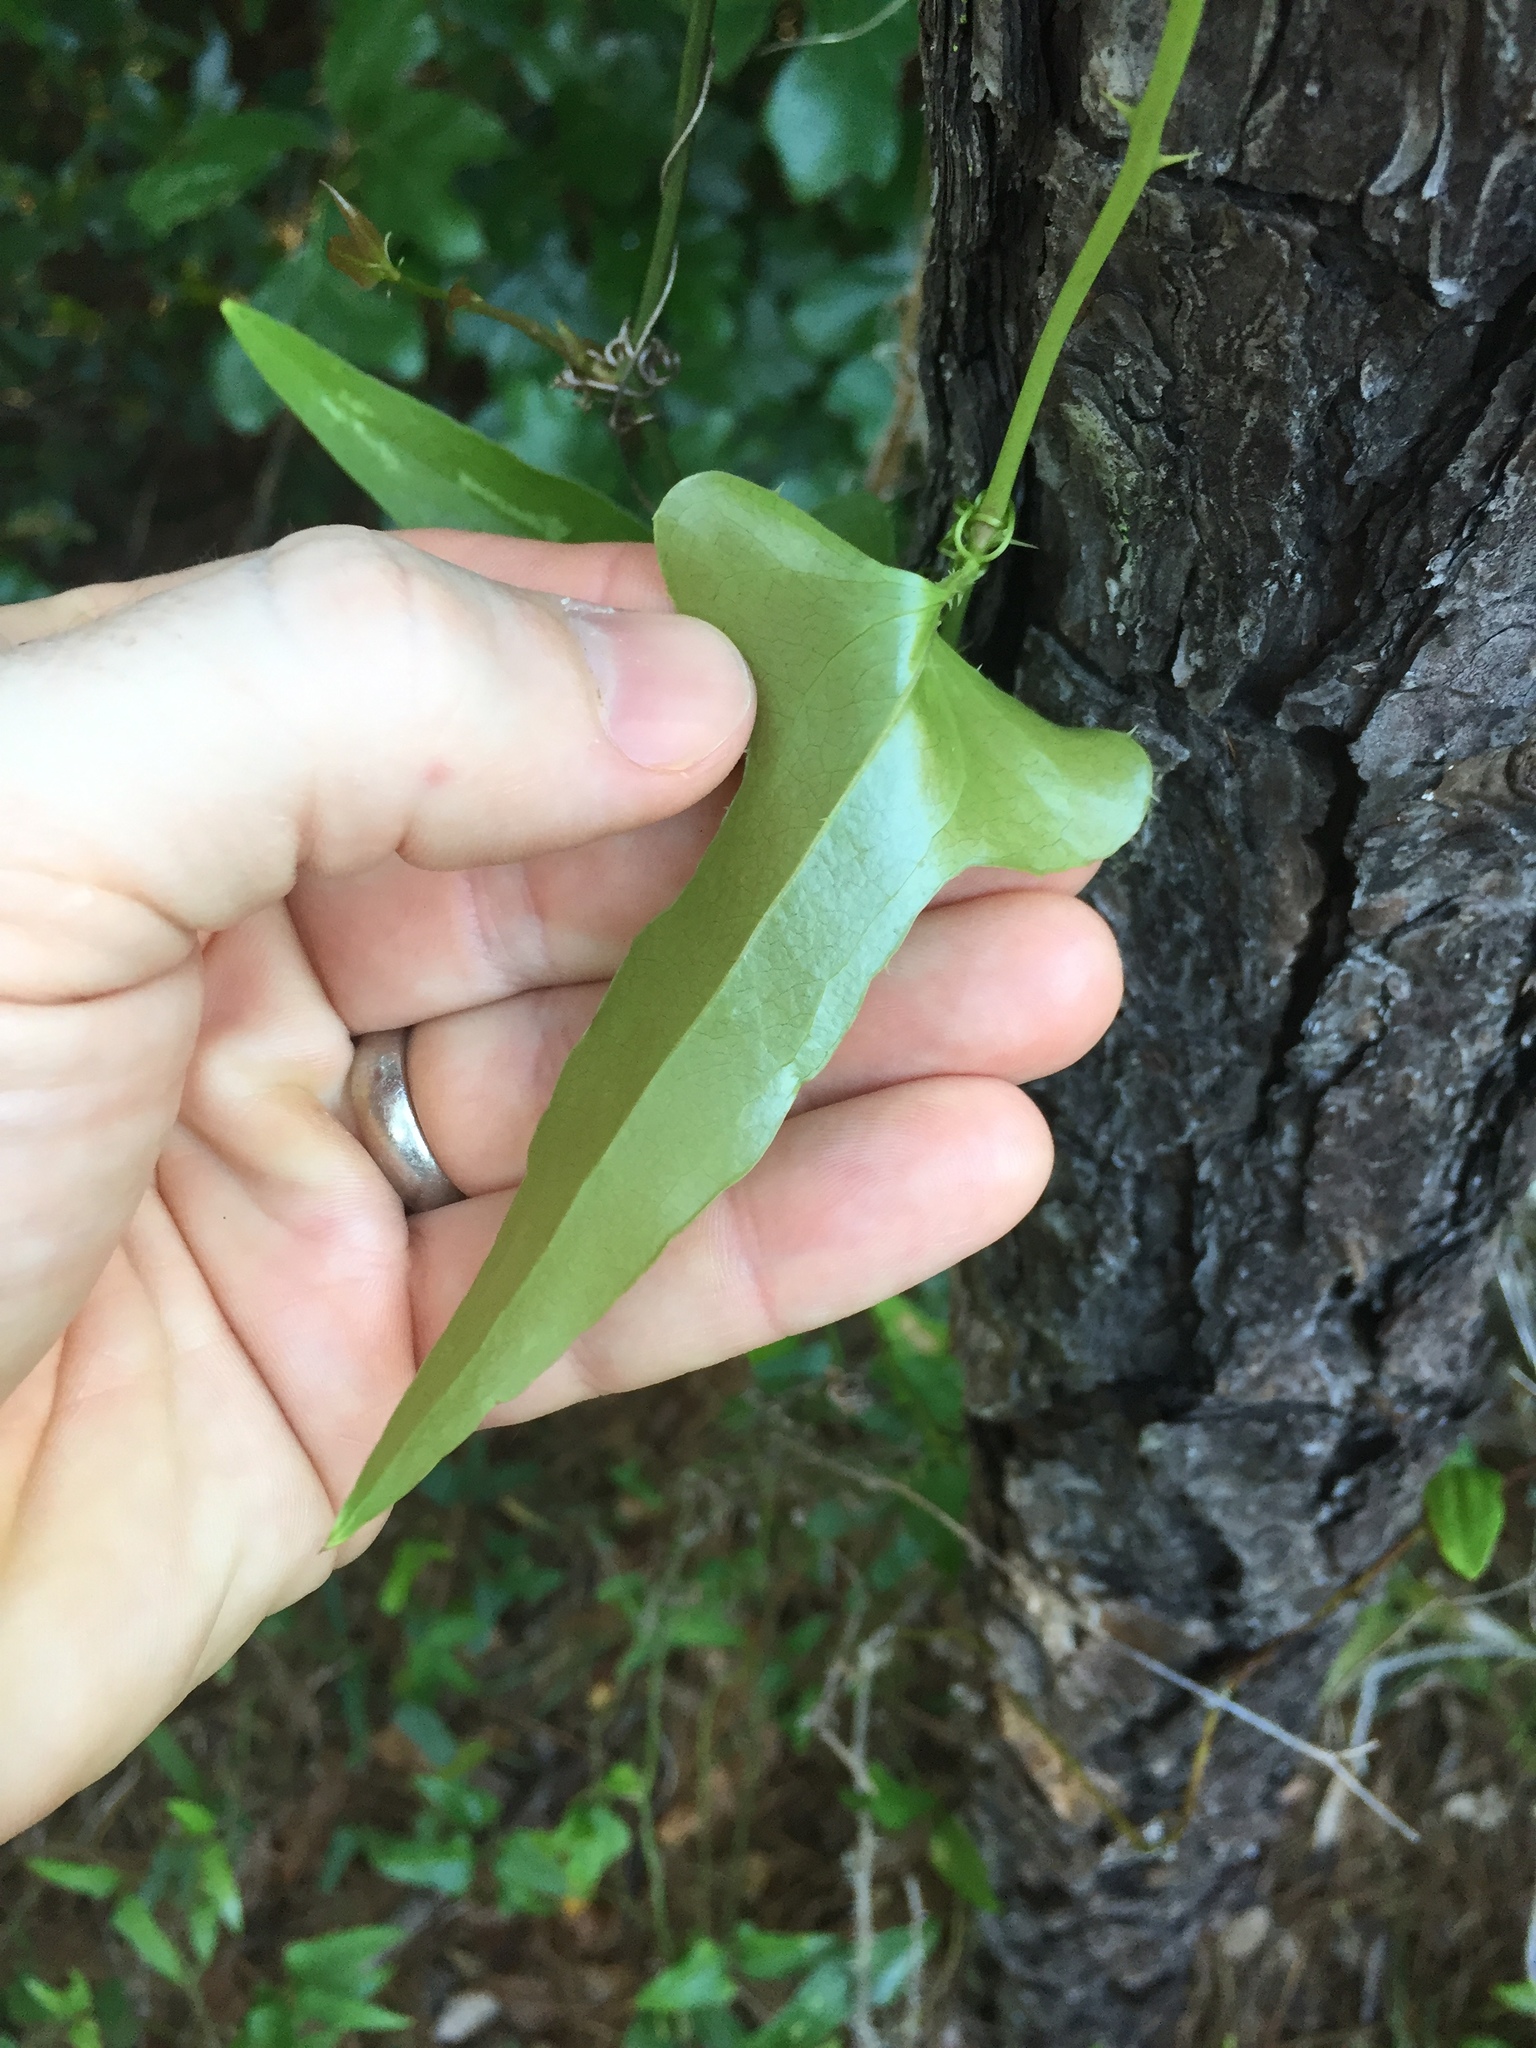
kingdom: Plantae
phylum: Tracheophyta
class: Liliopsida
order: Liliales
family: Smilacaceae
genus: Smilax
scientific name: Smilax bona-nox
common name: Catbrier
